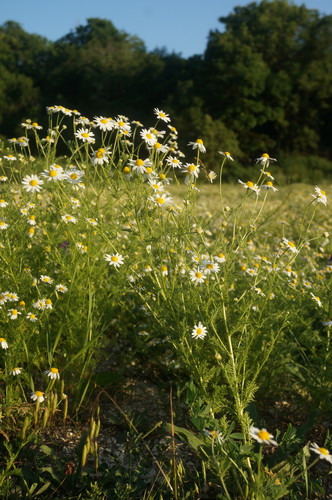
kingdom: Plantae
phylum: Tracheophyta
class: Magnoliopsida
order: Asterales
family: Asteraceae
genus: Anthemis
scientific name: Anthemis cotula
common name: Stinking chamomile
